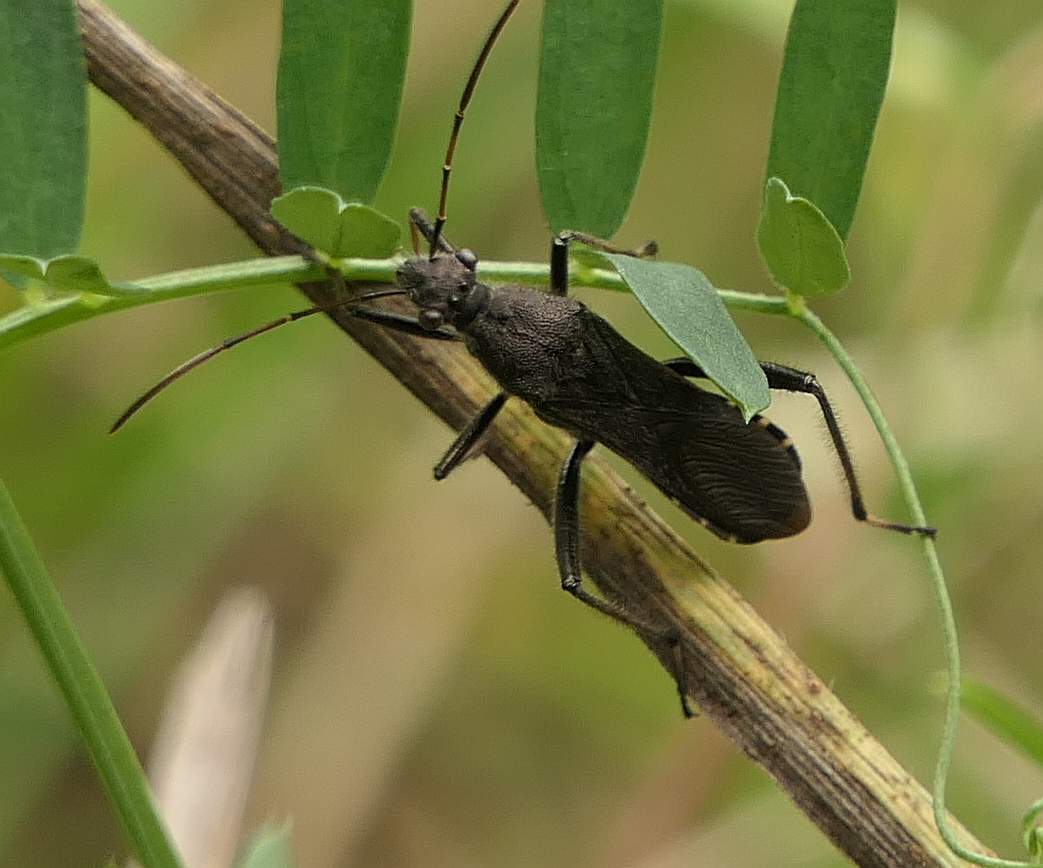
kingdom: Animalia
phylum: Arthropoda
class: Insecta
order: Hemiptera
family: Alydidae
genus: Alydus
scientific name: Alydus eurinus
